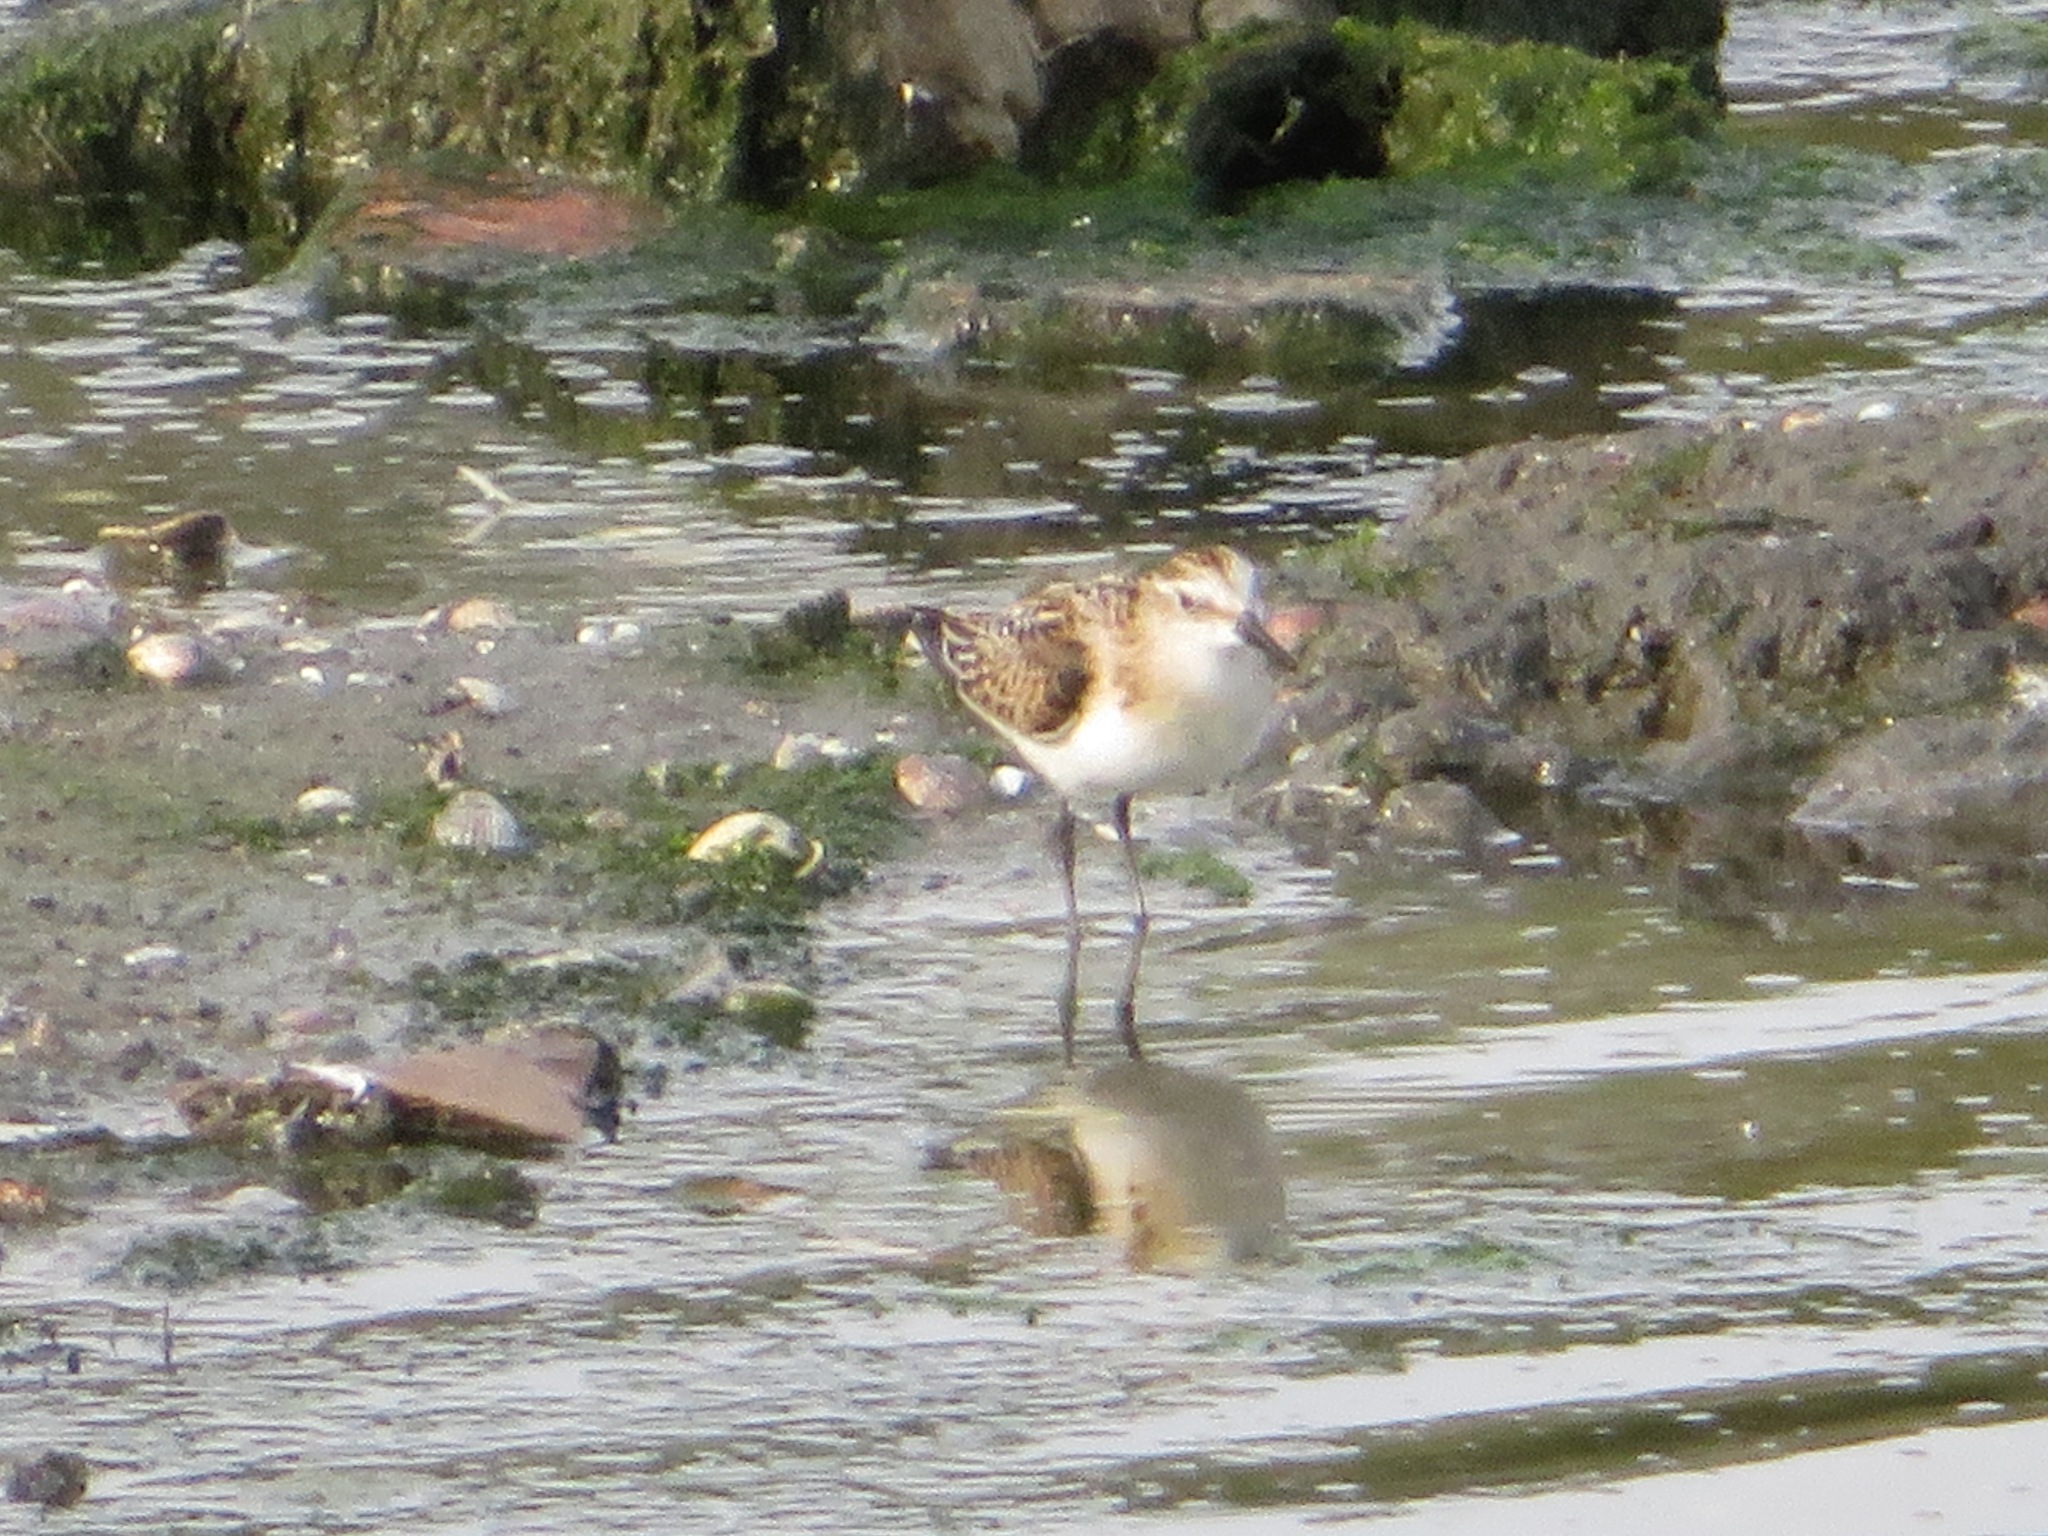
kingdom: Animalia
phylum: Chordata
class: Aves
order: Charadriiformes
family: Scolopacidae
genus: Calidris
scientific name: Calidris minuta
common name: Little stint
